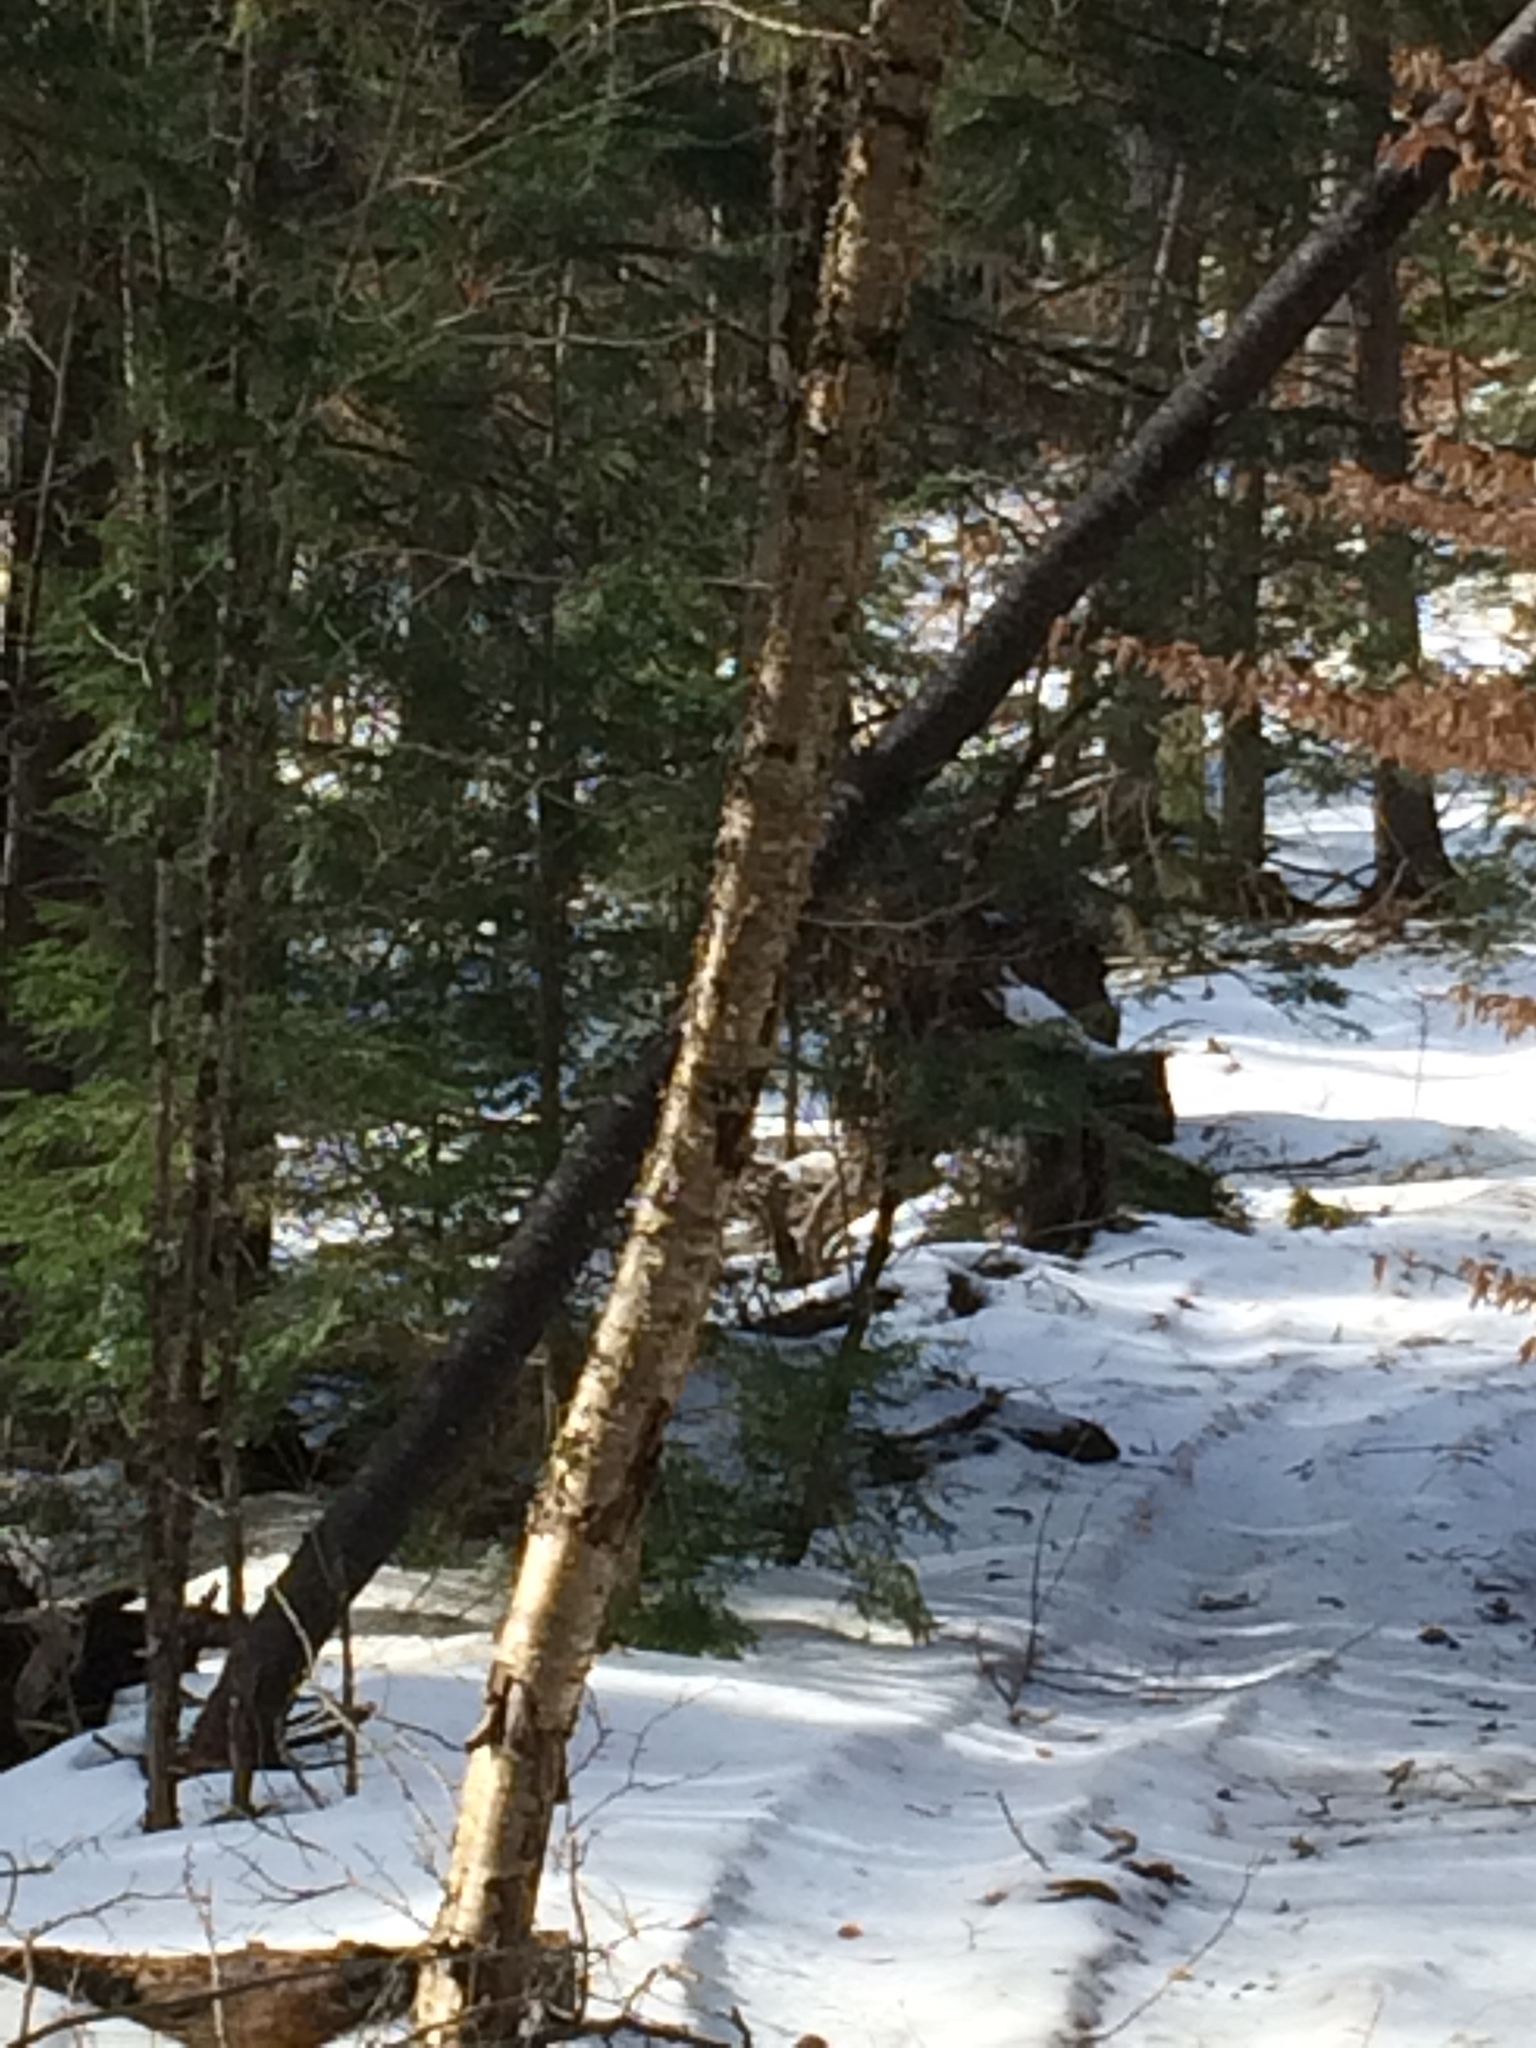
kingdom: Plantae
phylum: Tracheophyta
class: Magnoliopsida
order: Fagales
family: Betulaceae
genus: Betula
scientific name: Betula alleghaniensis
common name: Yellow birch
